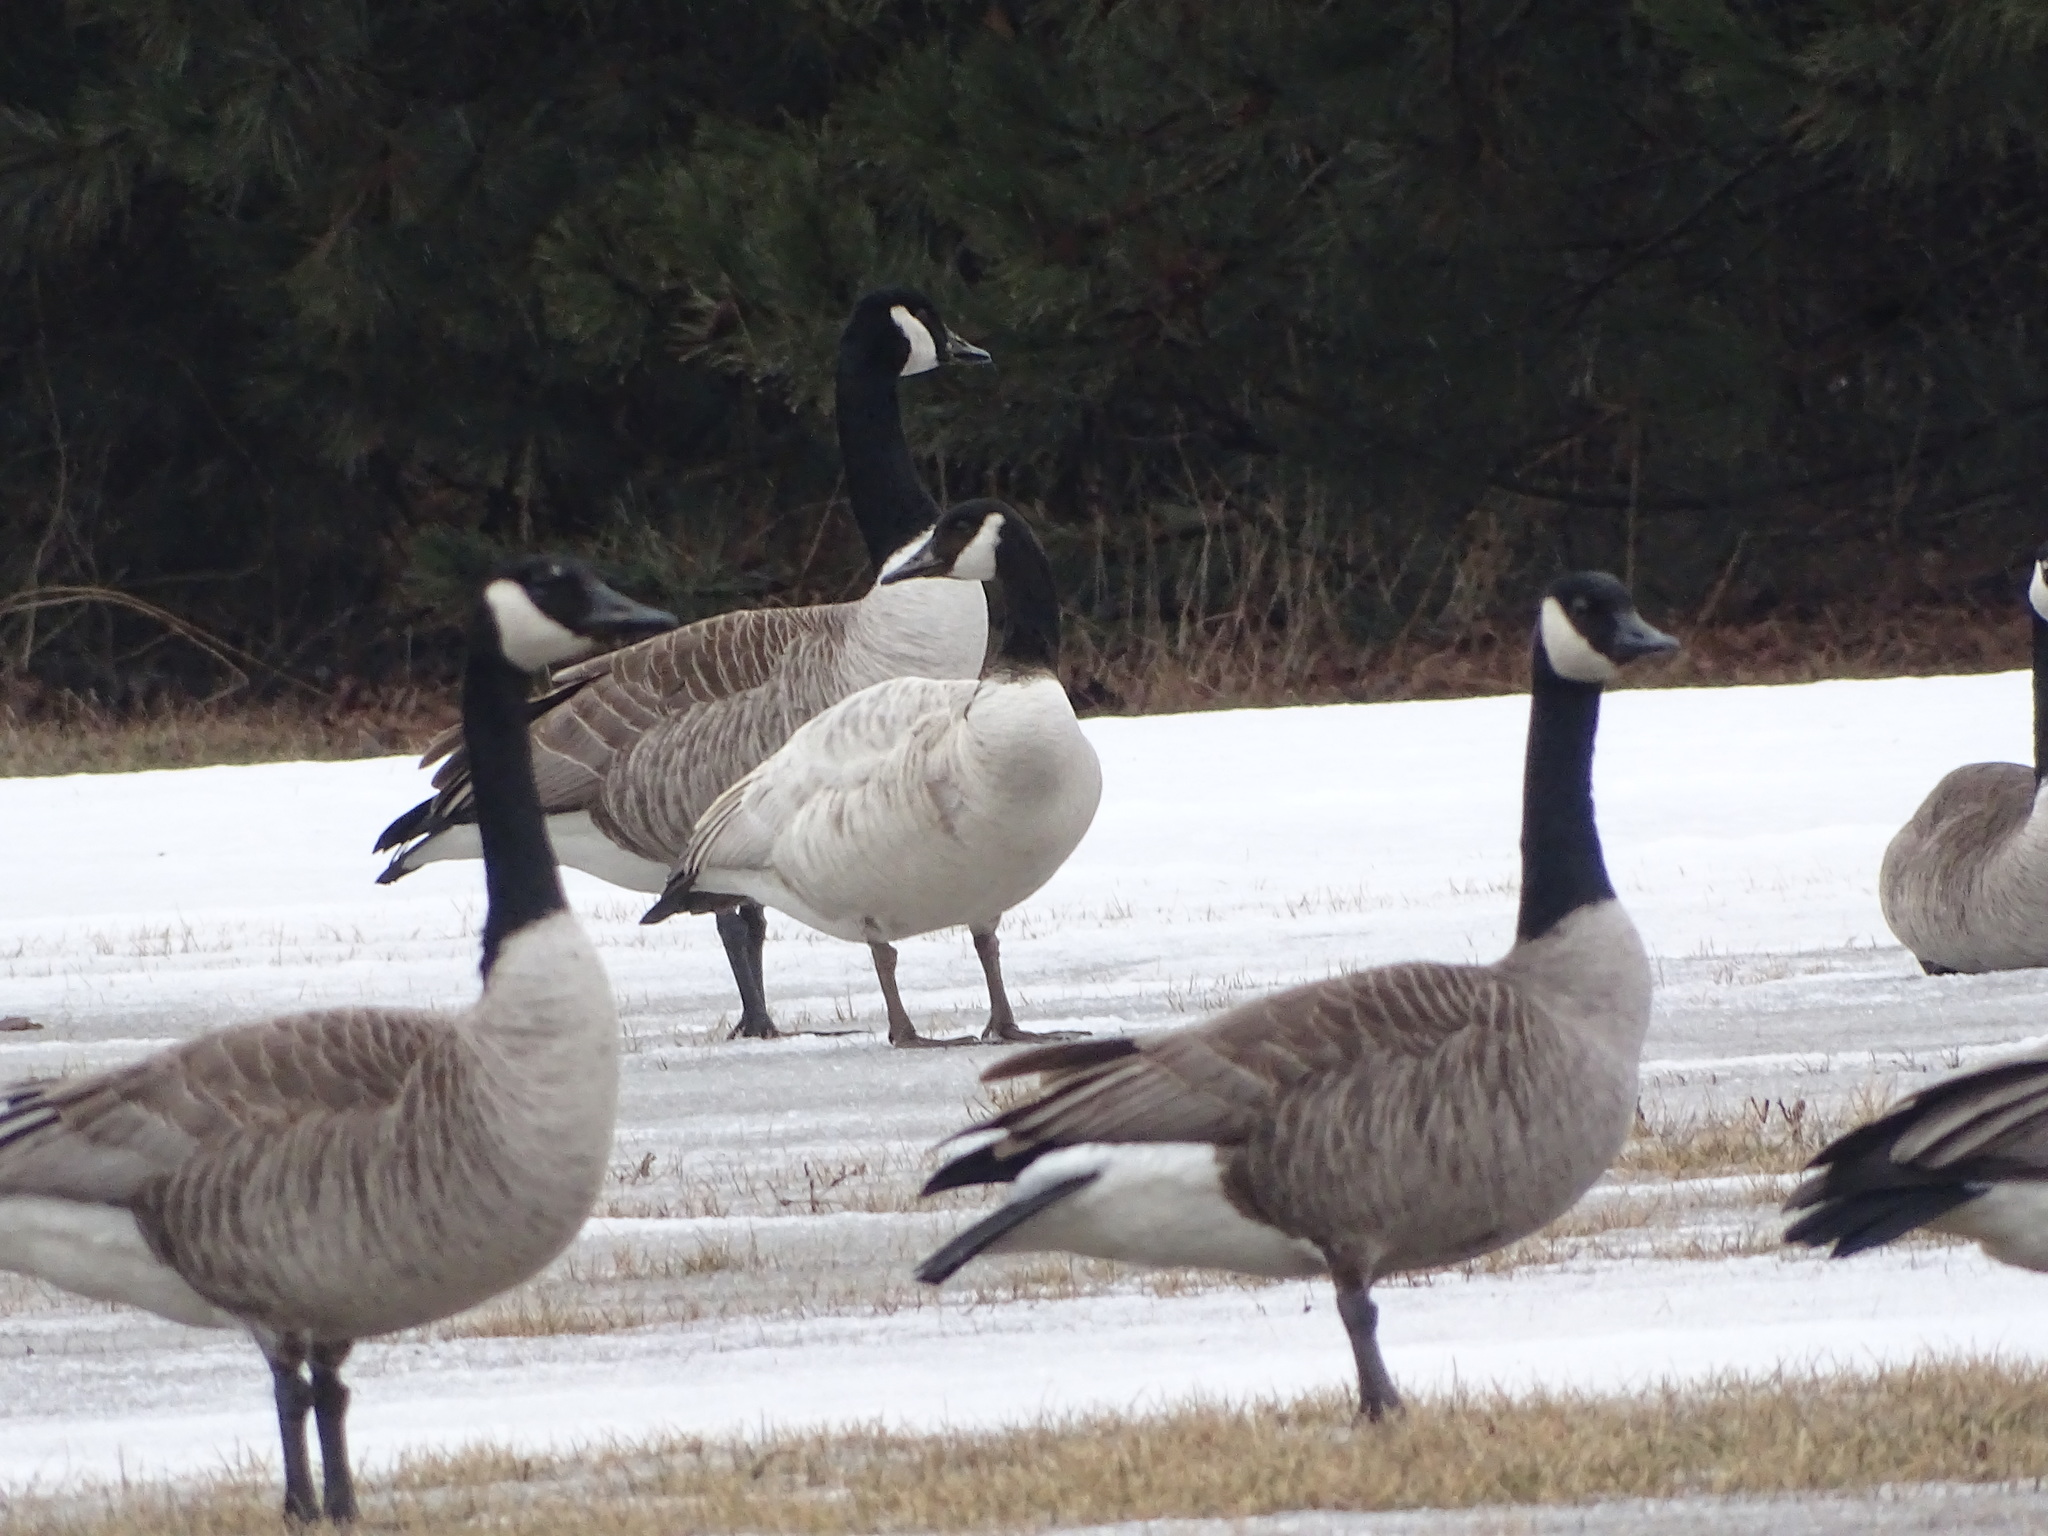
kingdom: Animalia
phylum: Chordata
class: Aves
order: Anseriformes
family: Anatidae
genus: Branta
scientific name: Branta canadensis
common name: Canada goose
